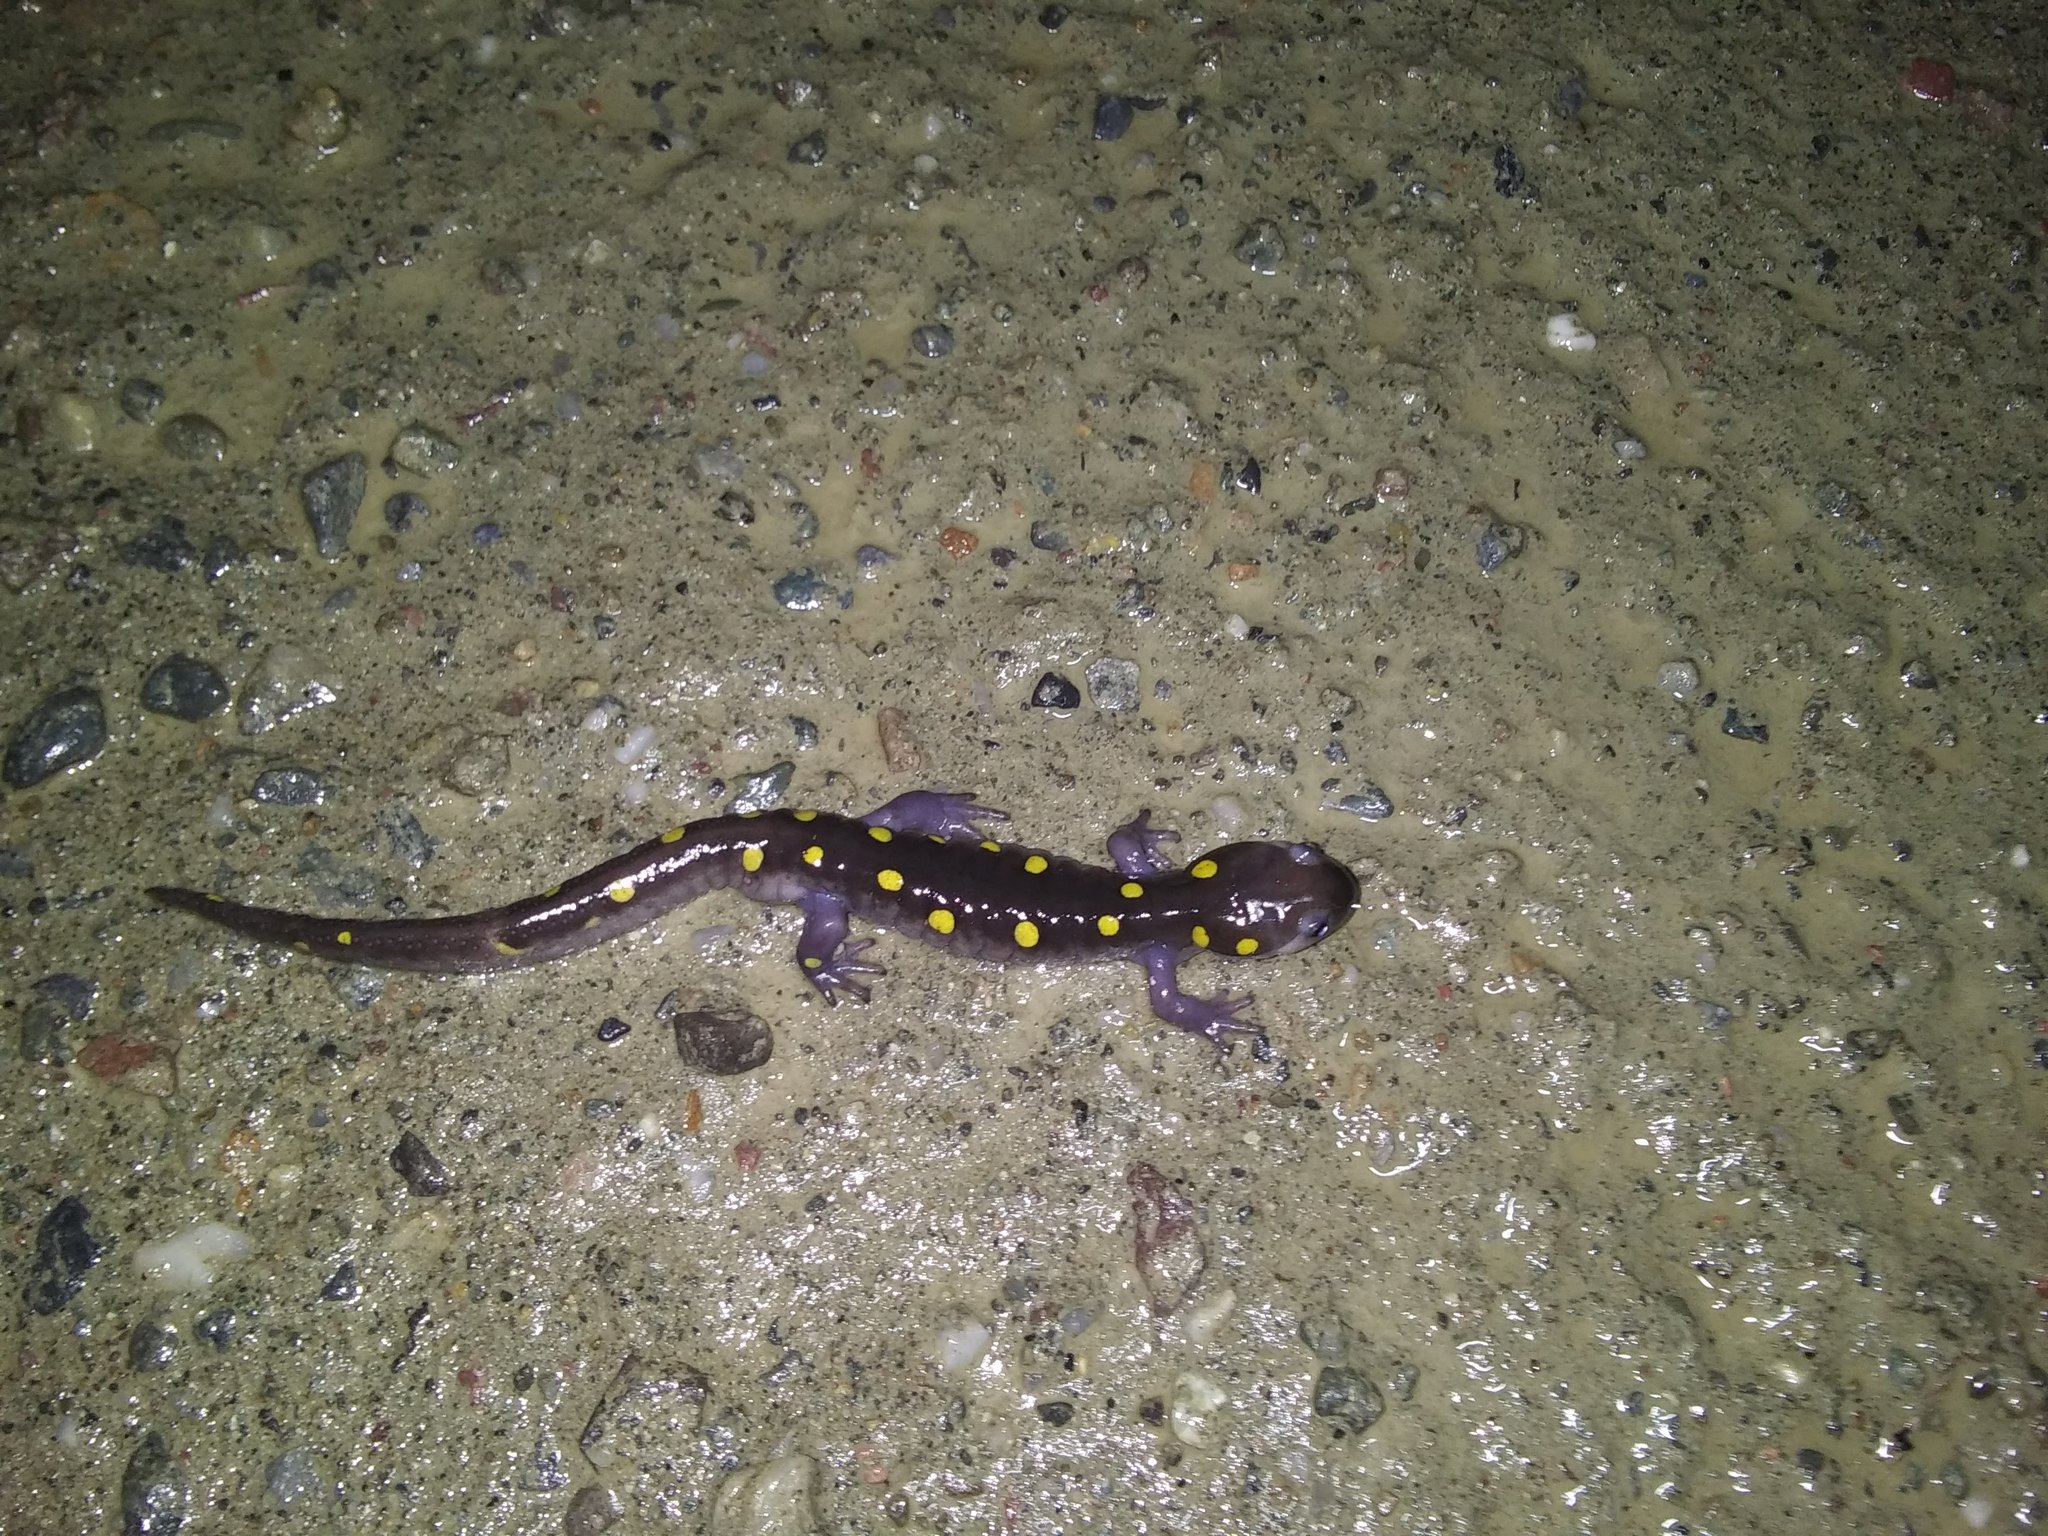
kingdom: Animalia
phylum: Chordata
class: Amphibia
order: Caudata
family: Ambystomatidae
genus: Ambystoma
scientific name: Ambystoma maculatum
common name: Spotted salamander
